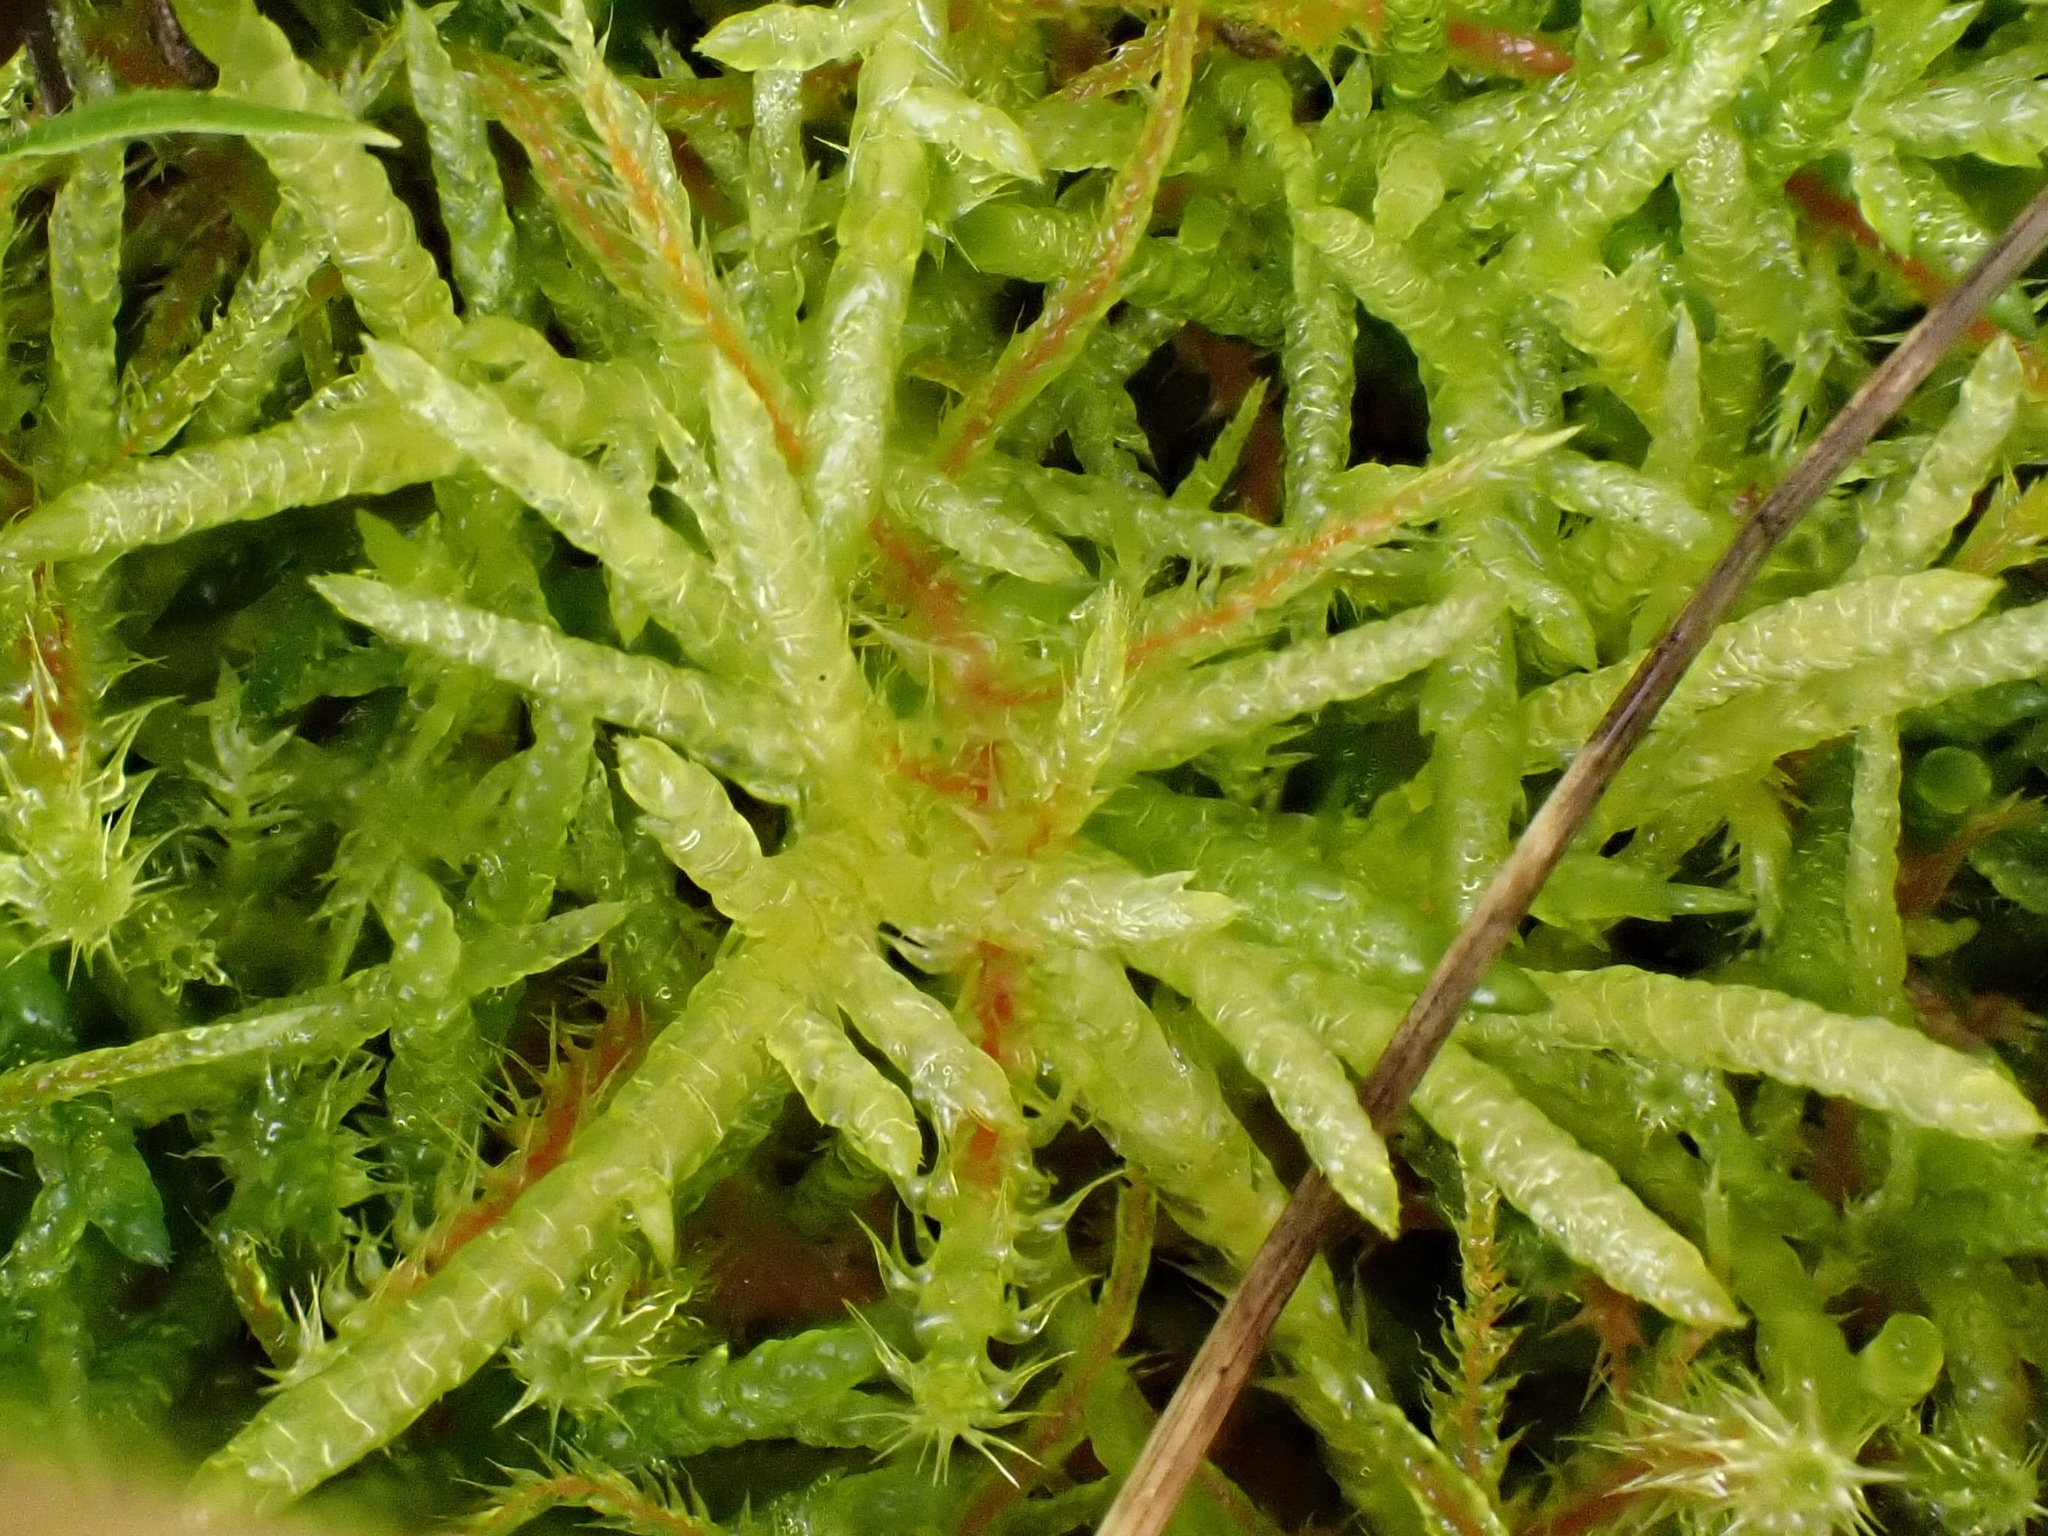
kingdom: Plantae
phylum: Bryophyta
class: Bryopsida
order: Hypnales
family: Brachytheciaceae
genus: Pseudoscleropodium
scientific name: Pseudoscleropodium purum
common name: Neat feather-moss
